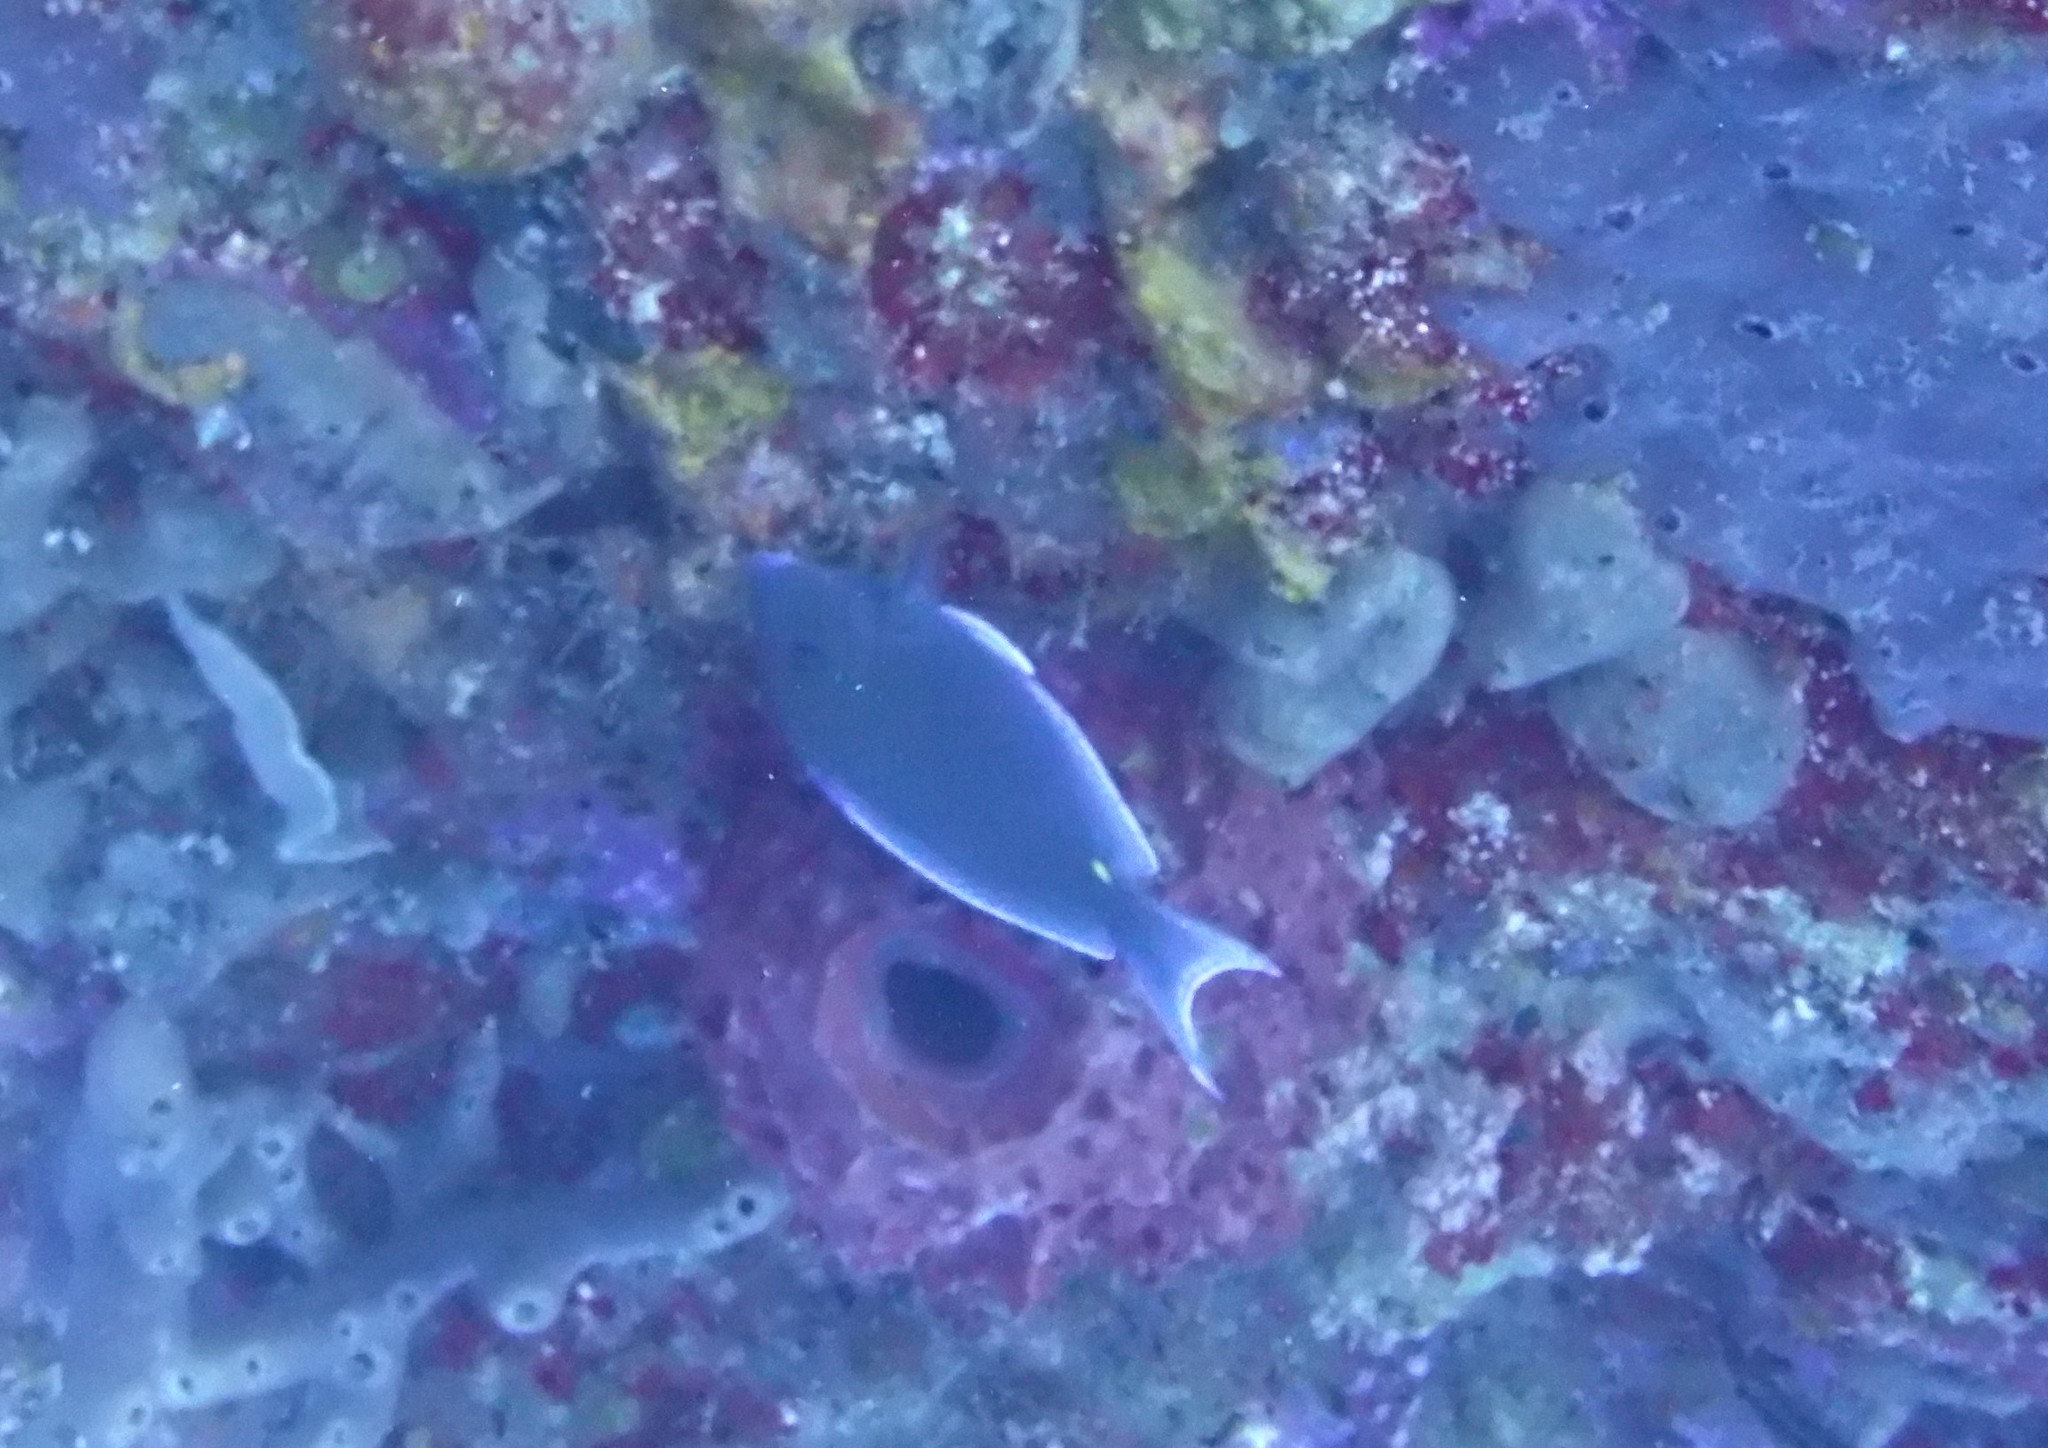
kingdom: Animalia
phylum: Chordata
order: Perciformes
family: Acanthuridae
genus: Acanthurus
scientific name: Acanthurus coeruleus
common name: Blue tang
